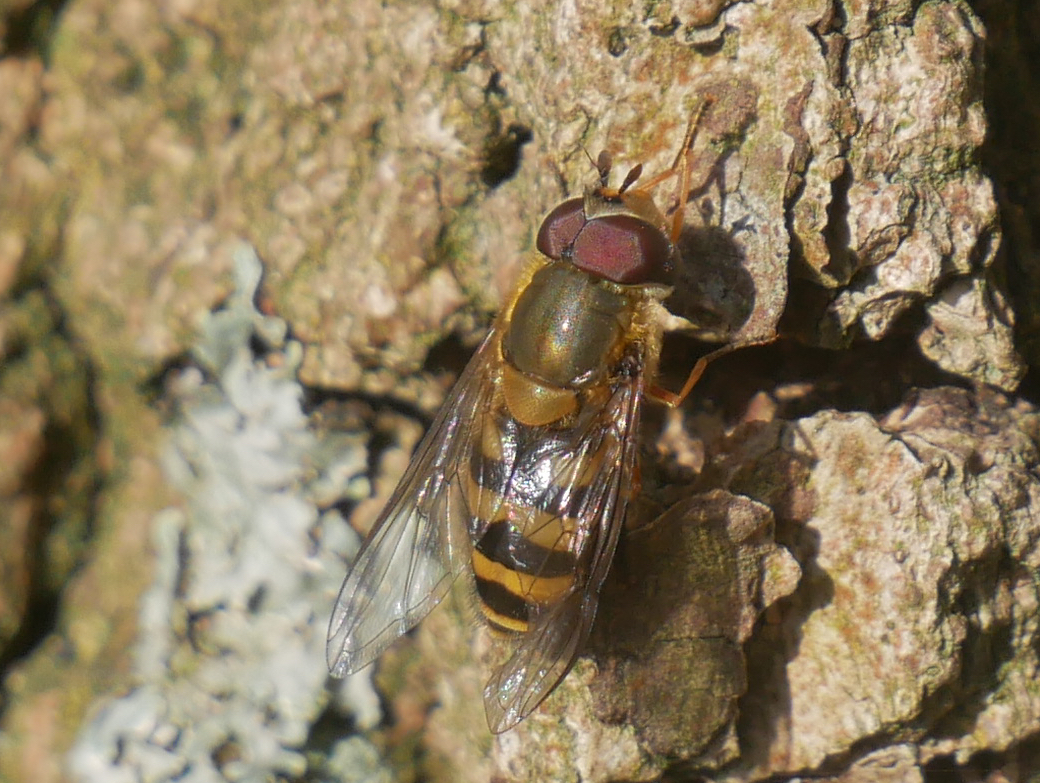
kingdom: Animalia
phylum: Arthropoda
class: Insecta
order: Diptera
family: Syrphidae
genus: Syrphus
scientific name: Syrphus torvus
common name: Hairy-eyed flower fly
